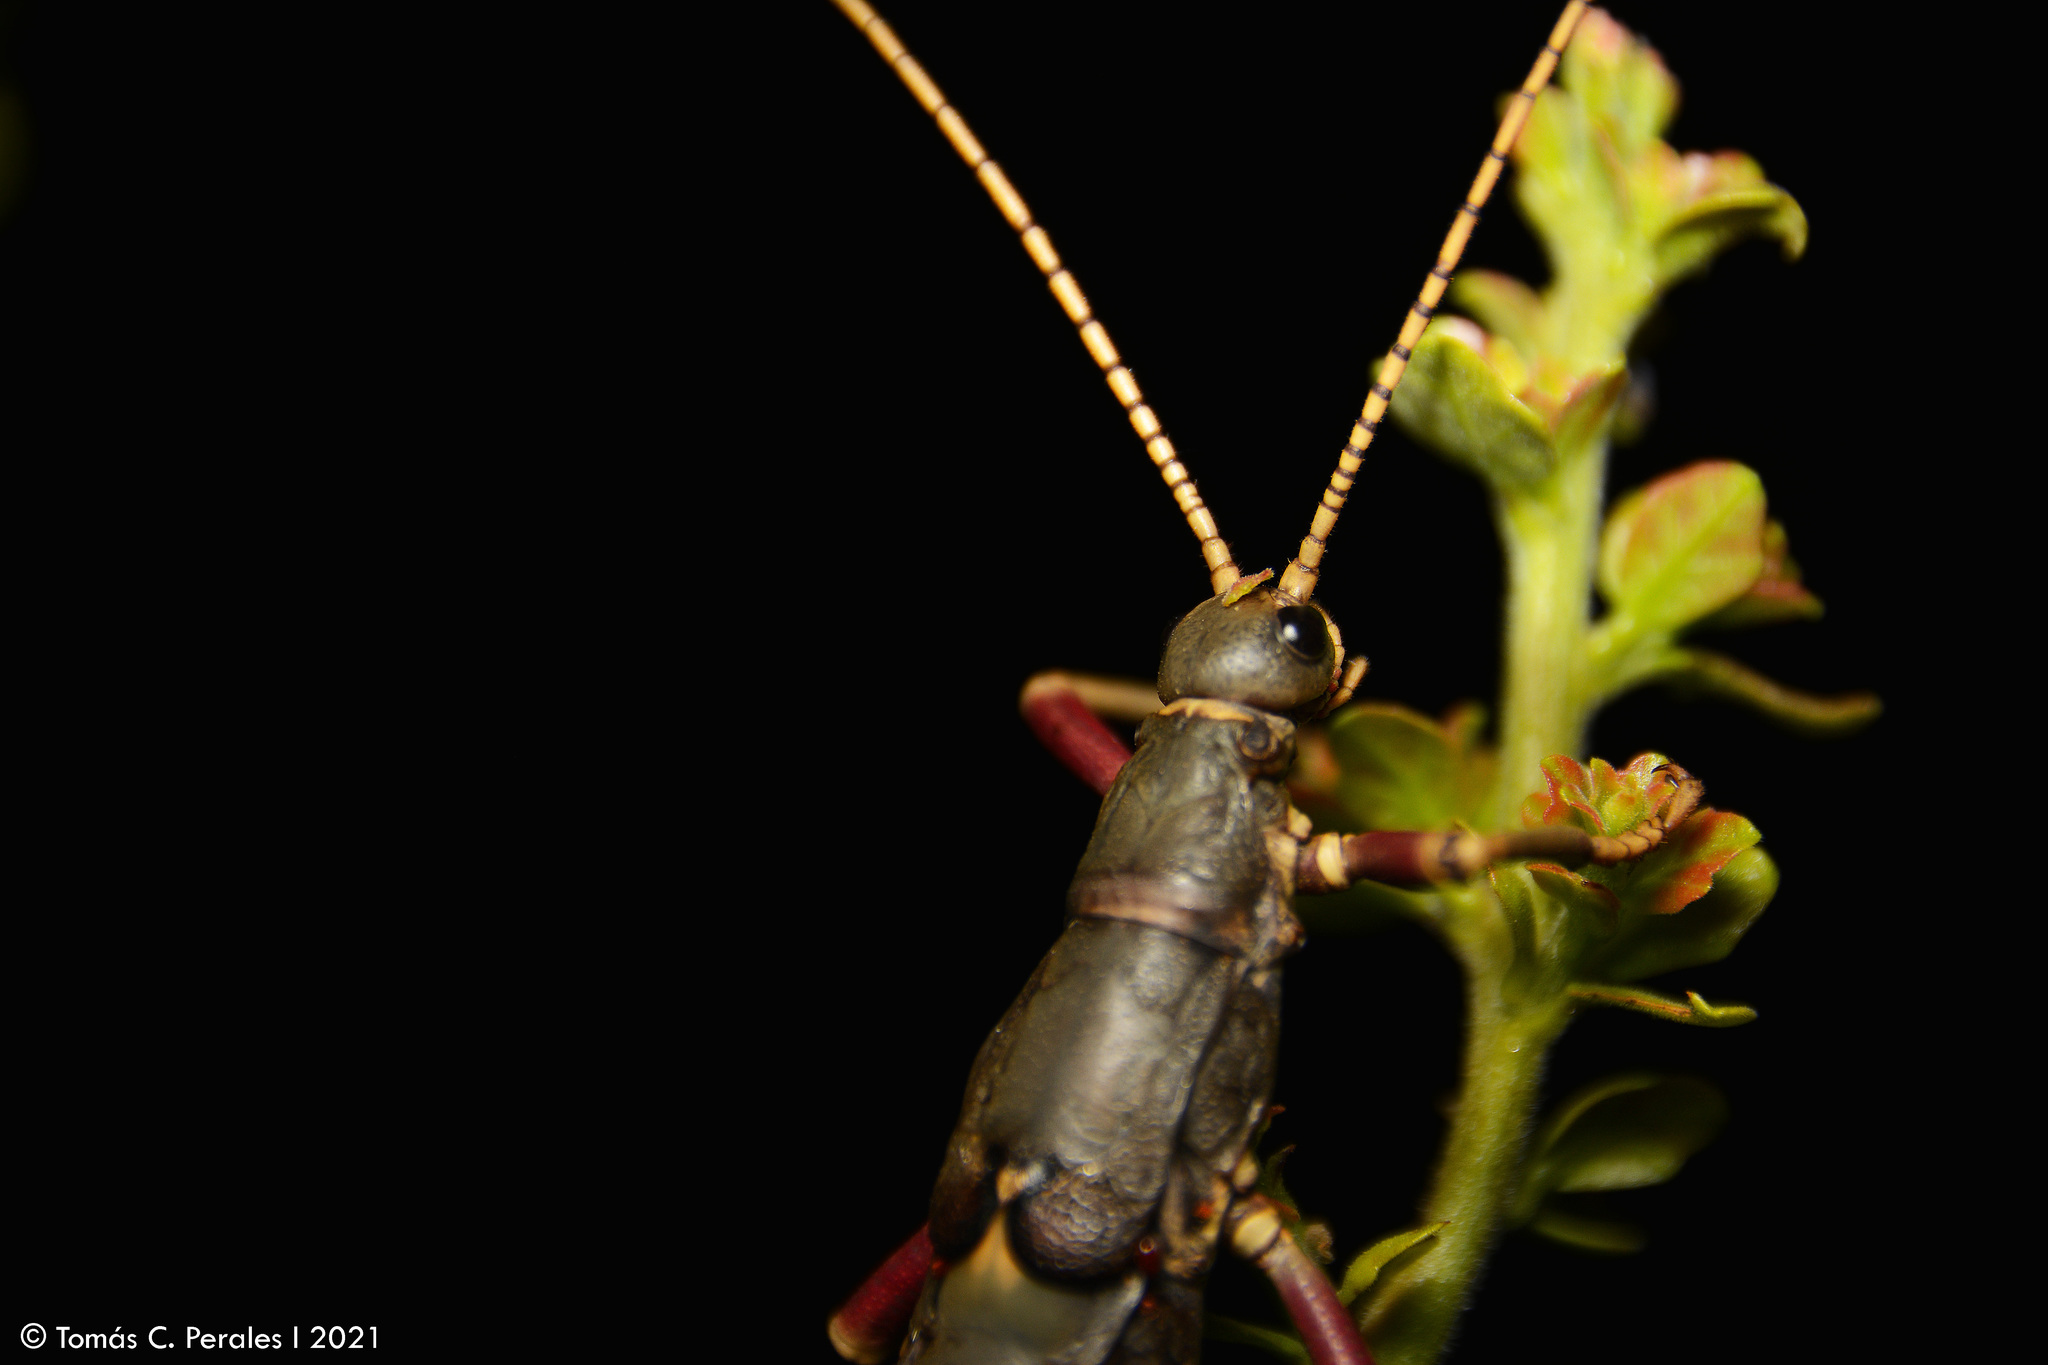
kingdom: Animalia
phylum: Arthropoda
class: Insecta
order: Phasmida
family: Agathemeridae
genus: Agathemera
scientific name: Agathemera luteola
